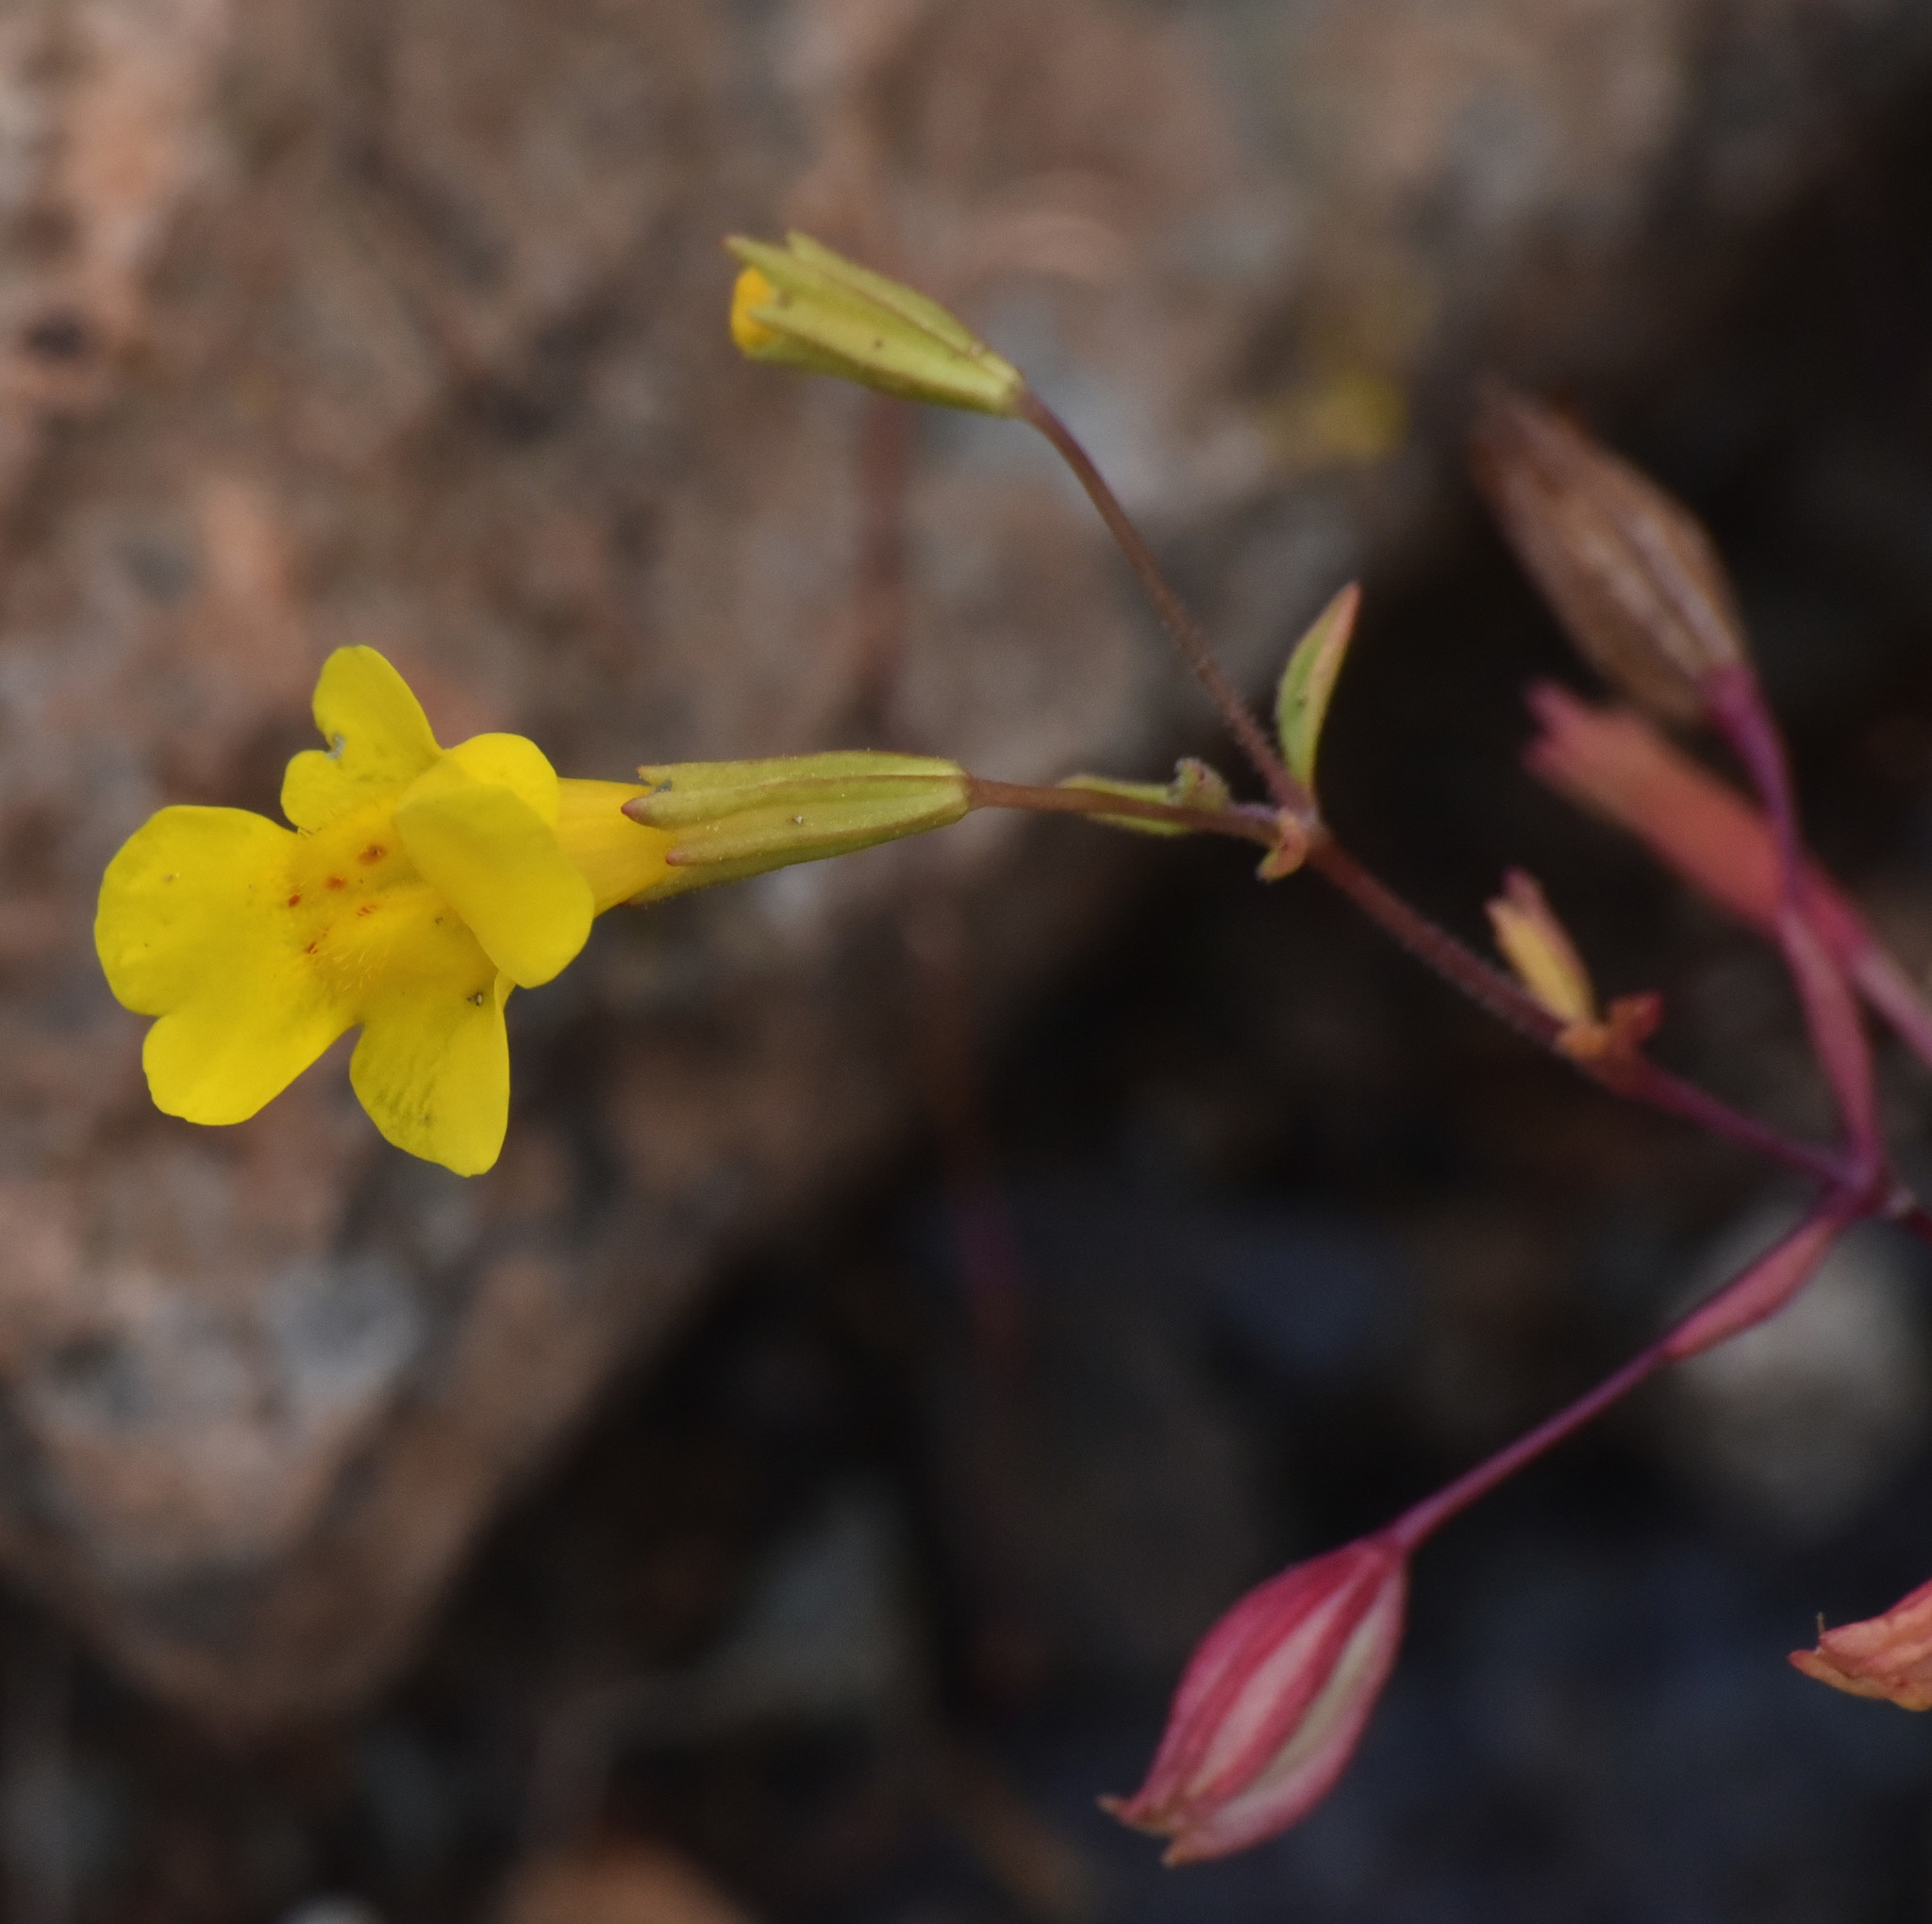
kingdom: Plantae
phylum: Tracheophyta
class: Magnoliopsida
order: Lamiales
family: Phrymaceae
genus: Erythranthe
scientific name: Erythranthe nudata
